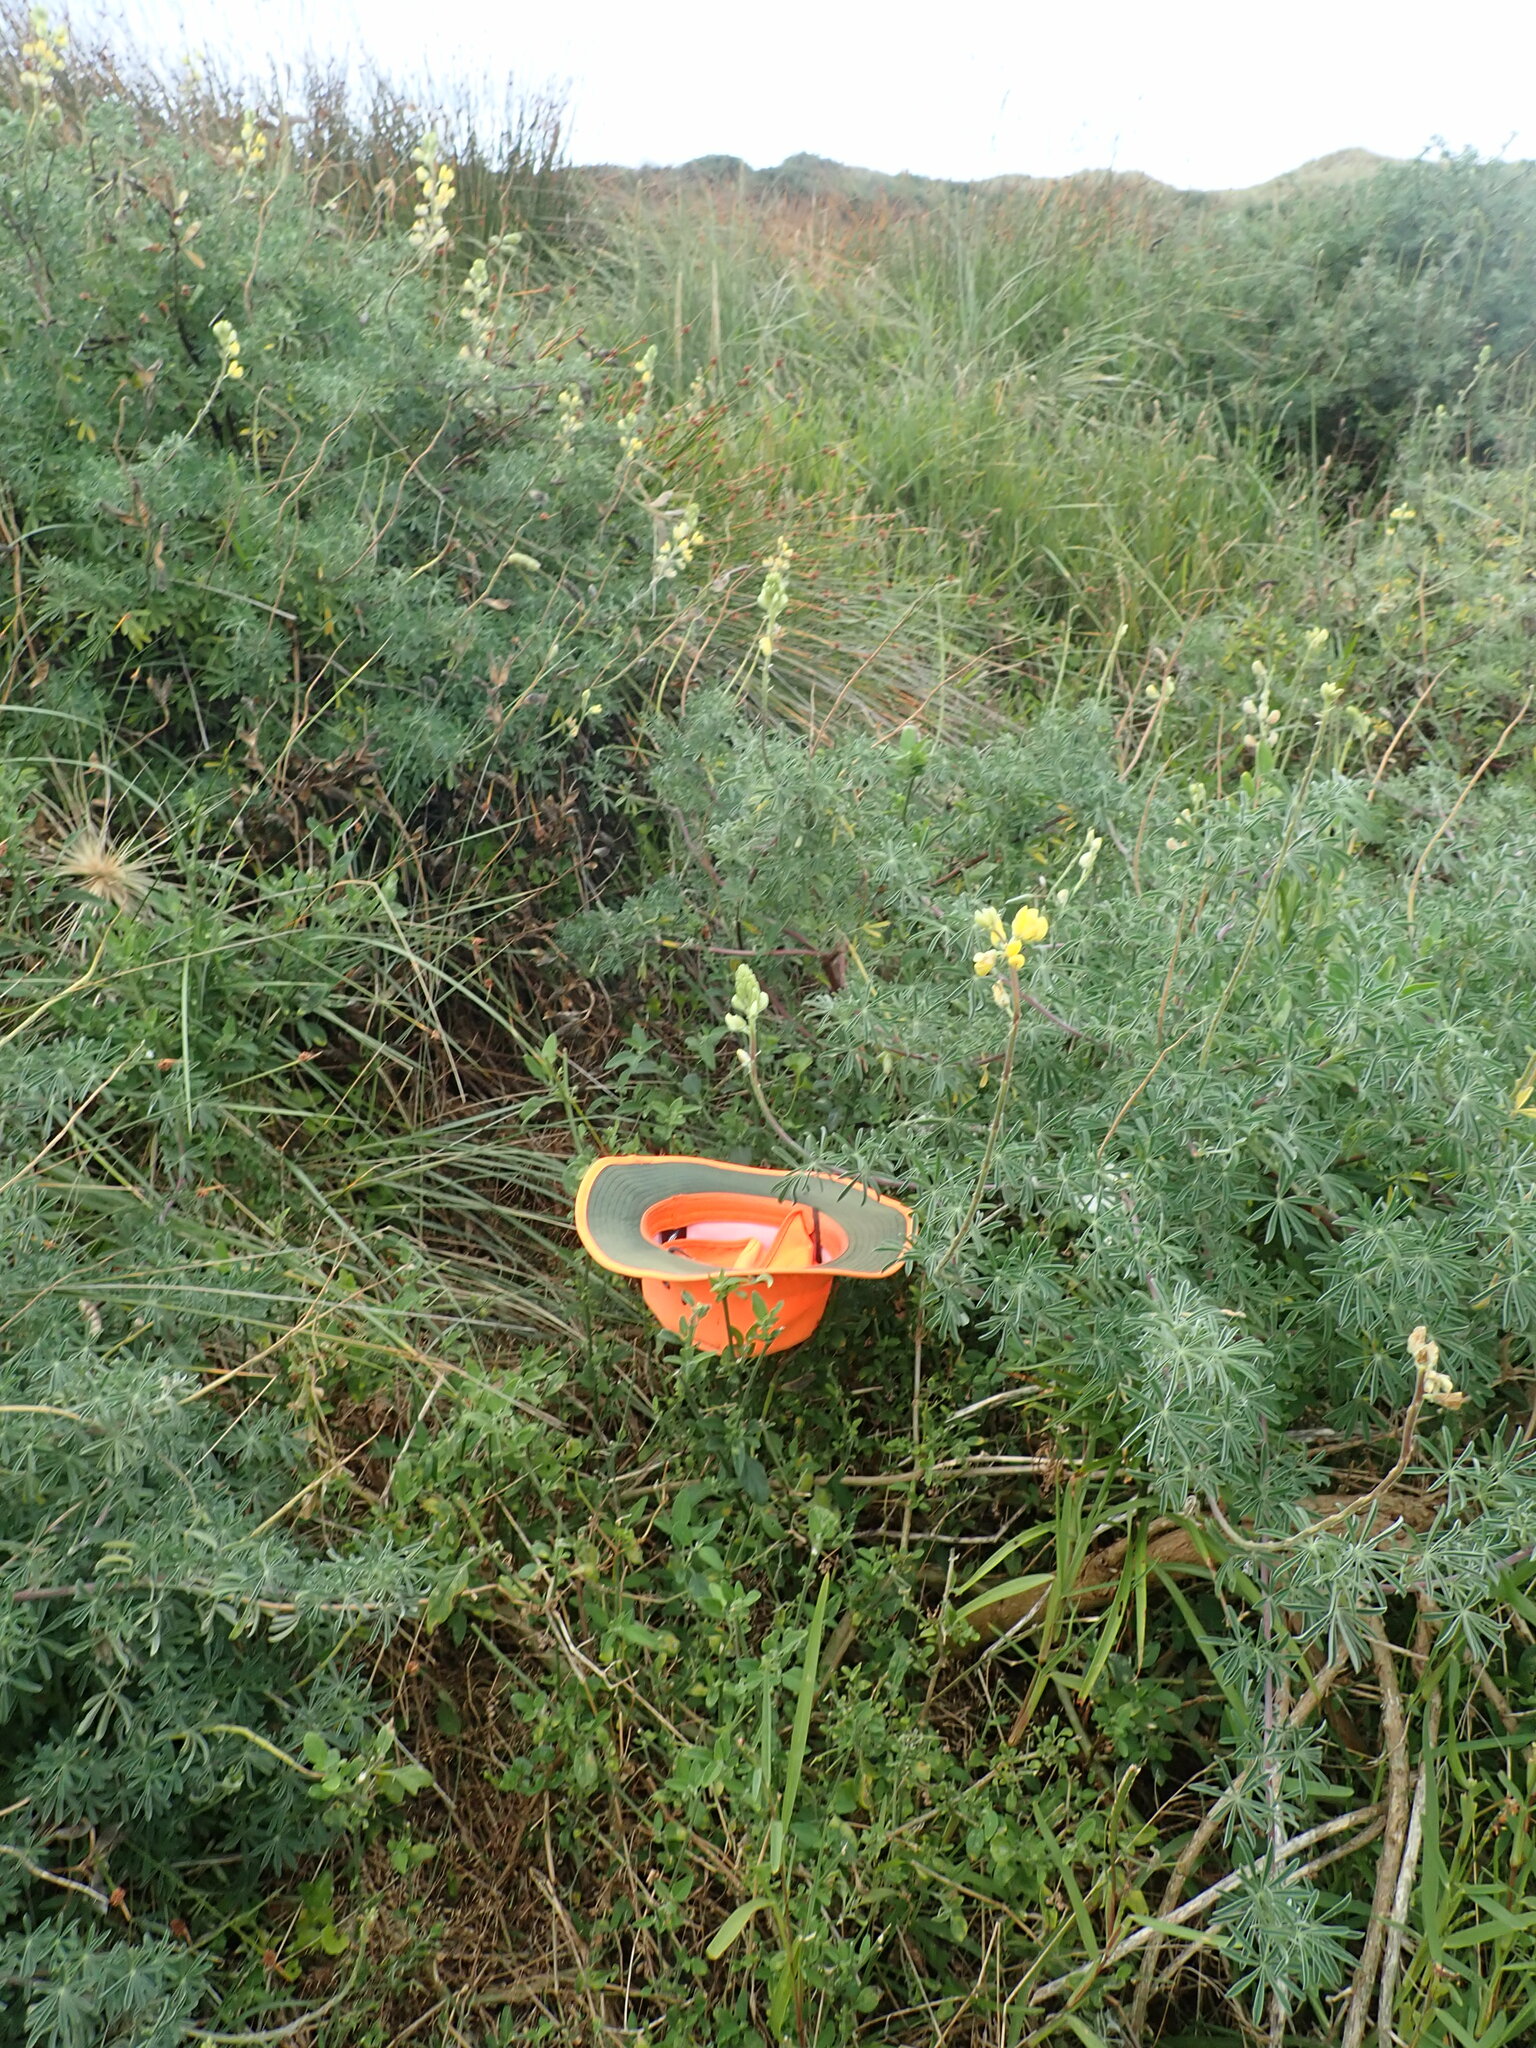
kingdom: Plantae
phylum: Tracheophyta
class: Magnoliopsida
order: Solanales
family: Solanaceae
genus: Solanum
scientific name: Solanum chenopodioides
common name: Tall nightshade
